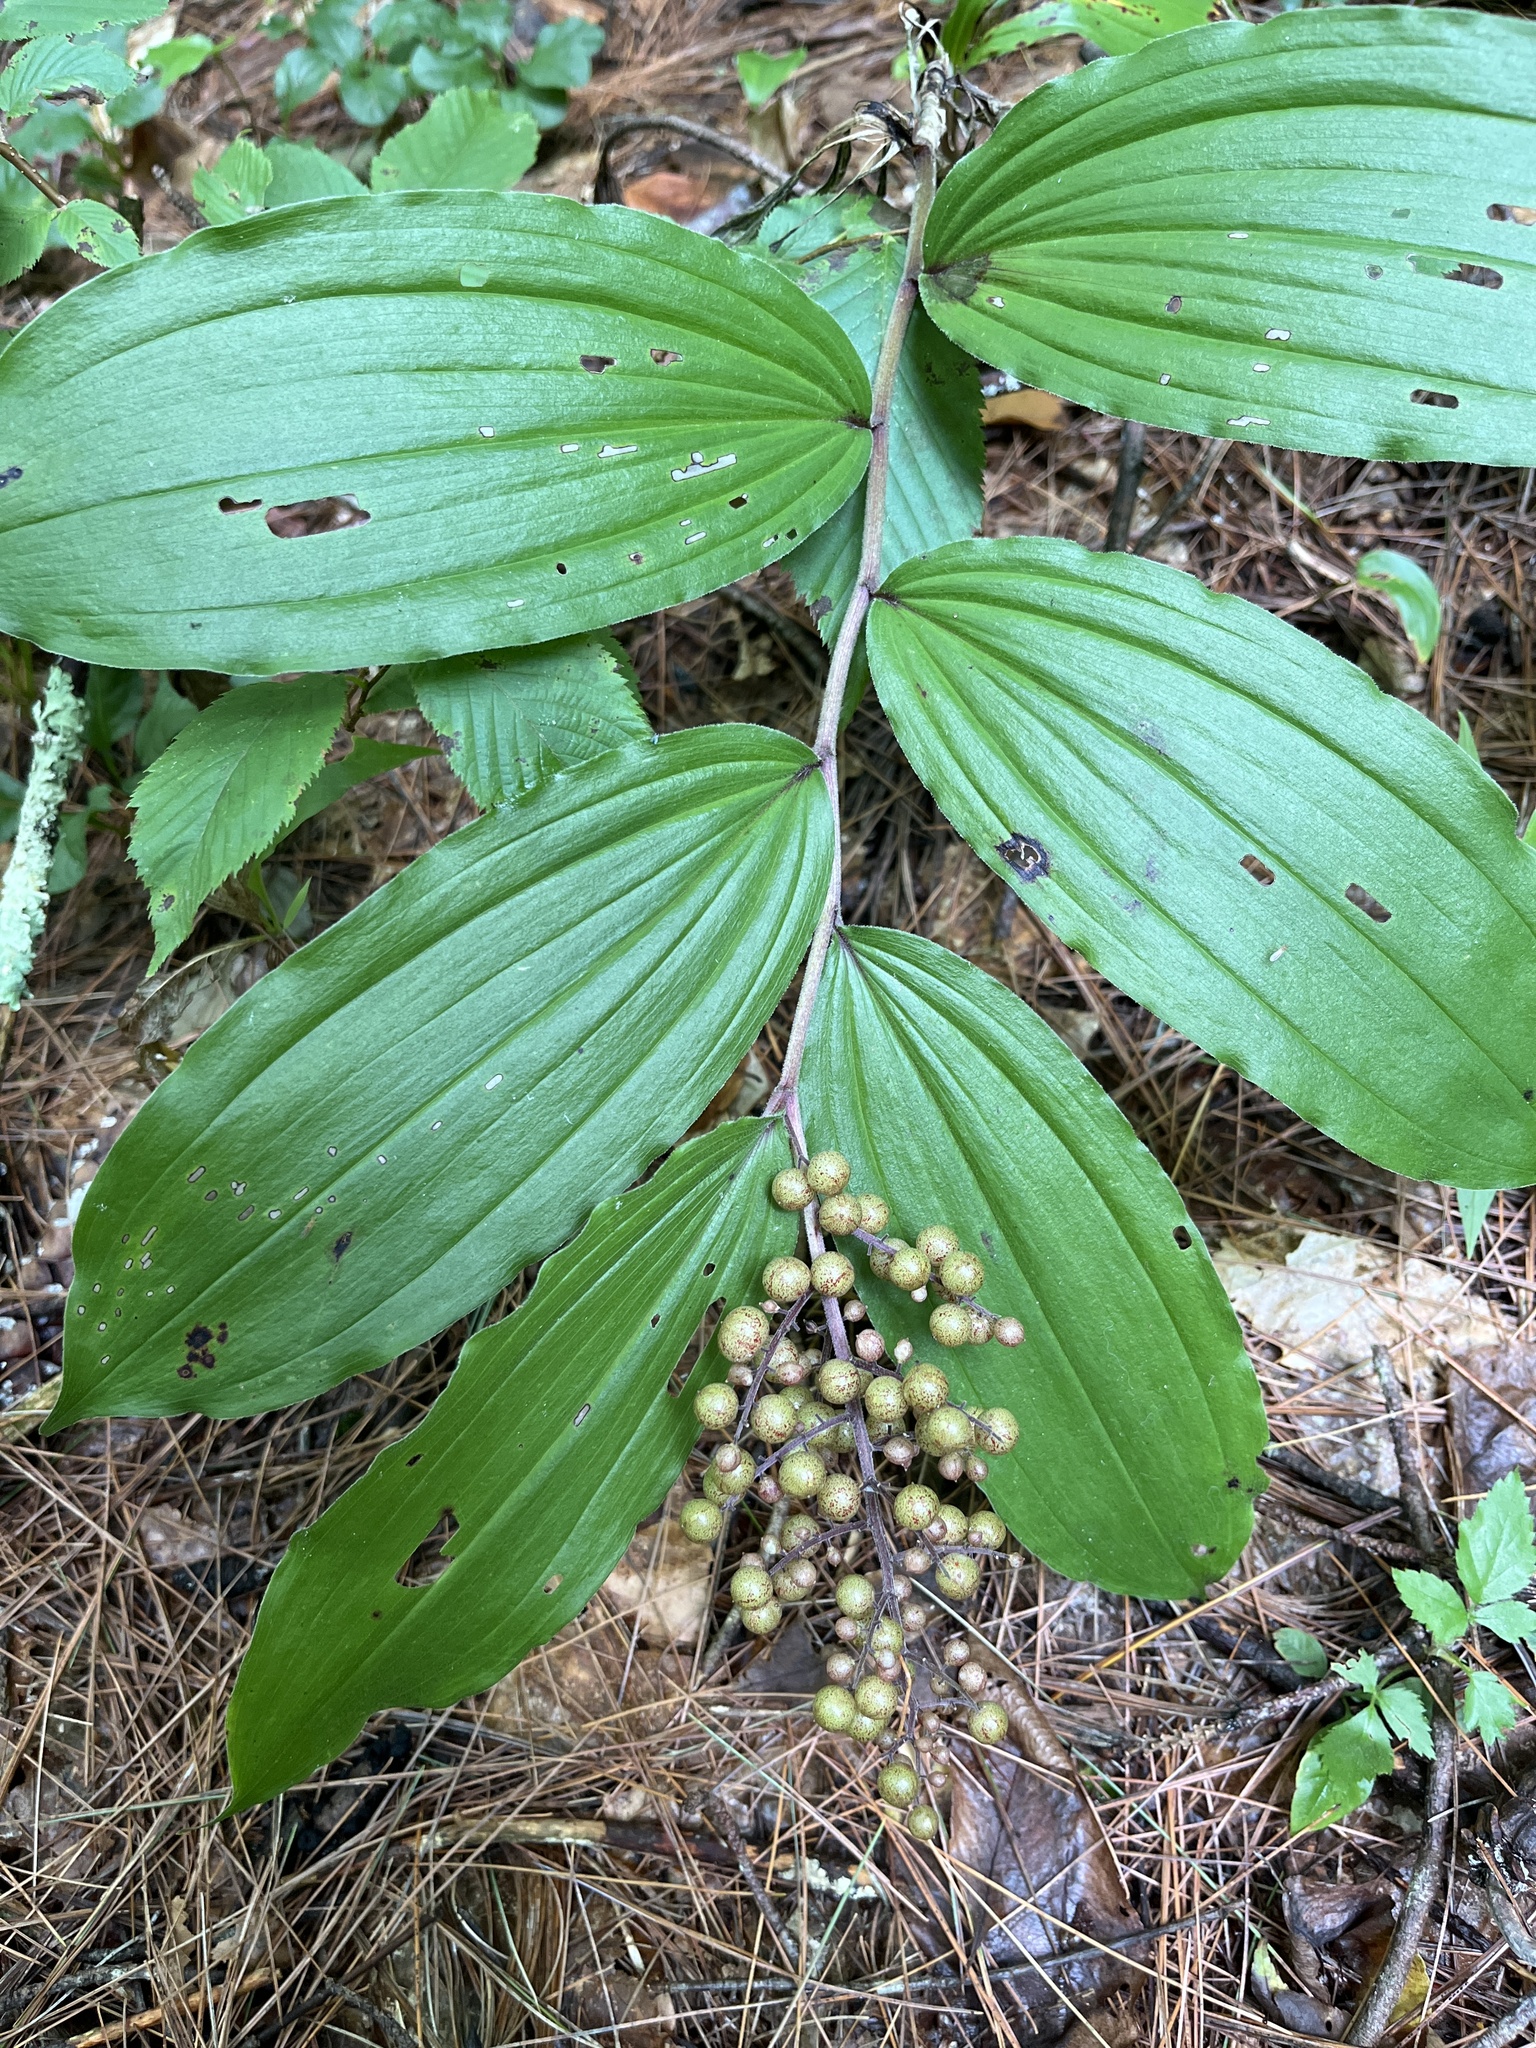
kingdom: Plantae
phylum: Tracheophyta
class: Liliopsida
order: Asparagales
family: Asparagaceae
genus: Maianthemum
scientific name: Maianthemum racemosum
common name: False spikenard
